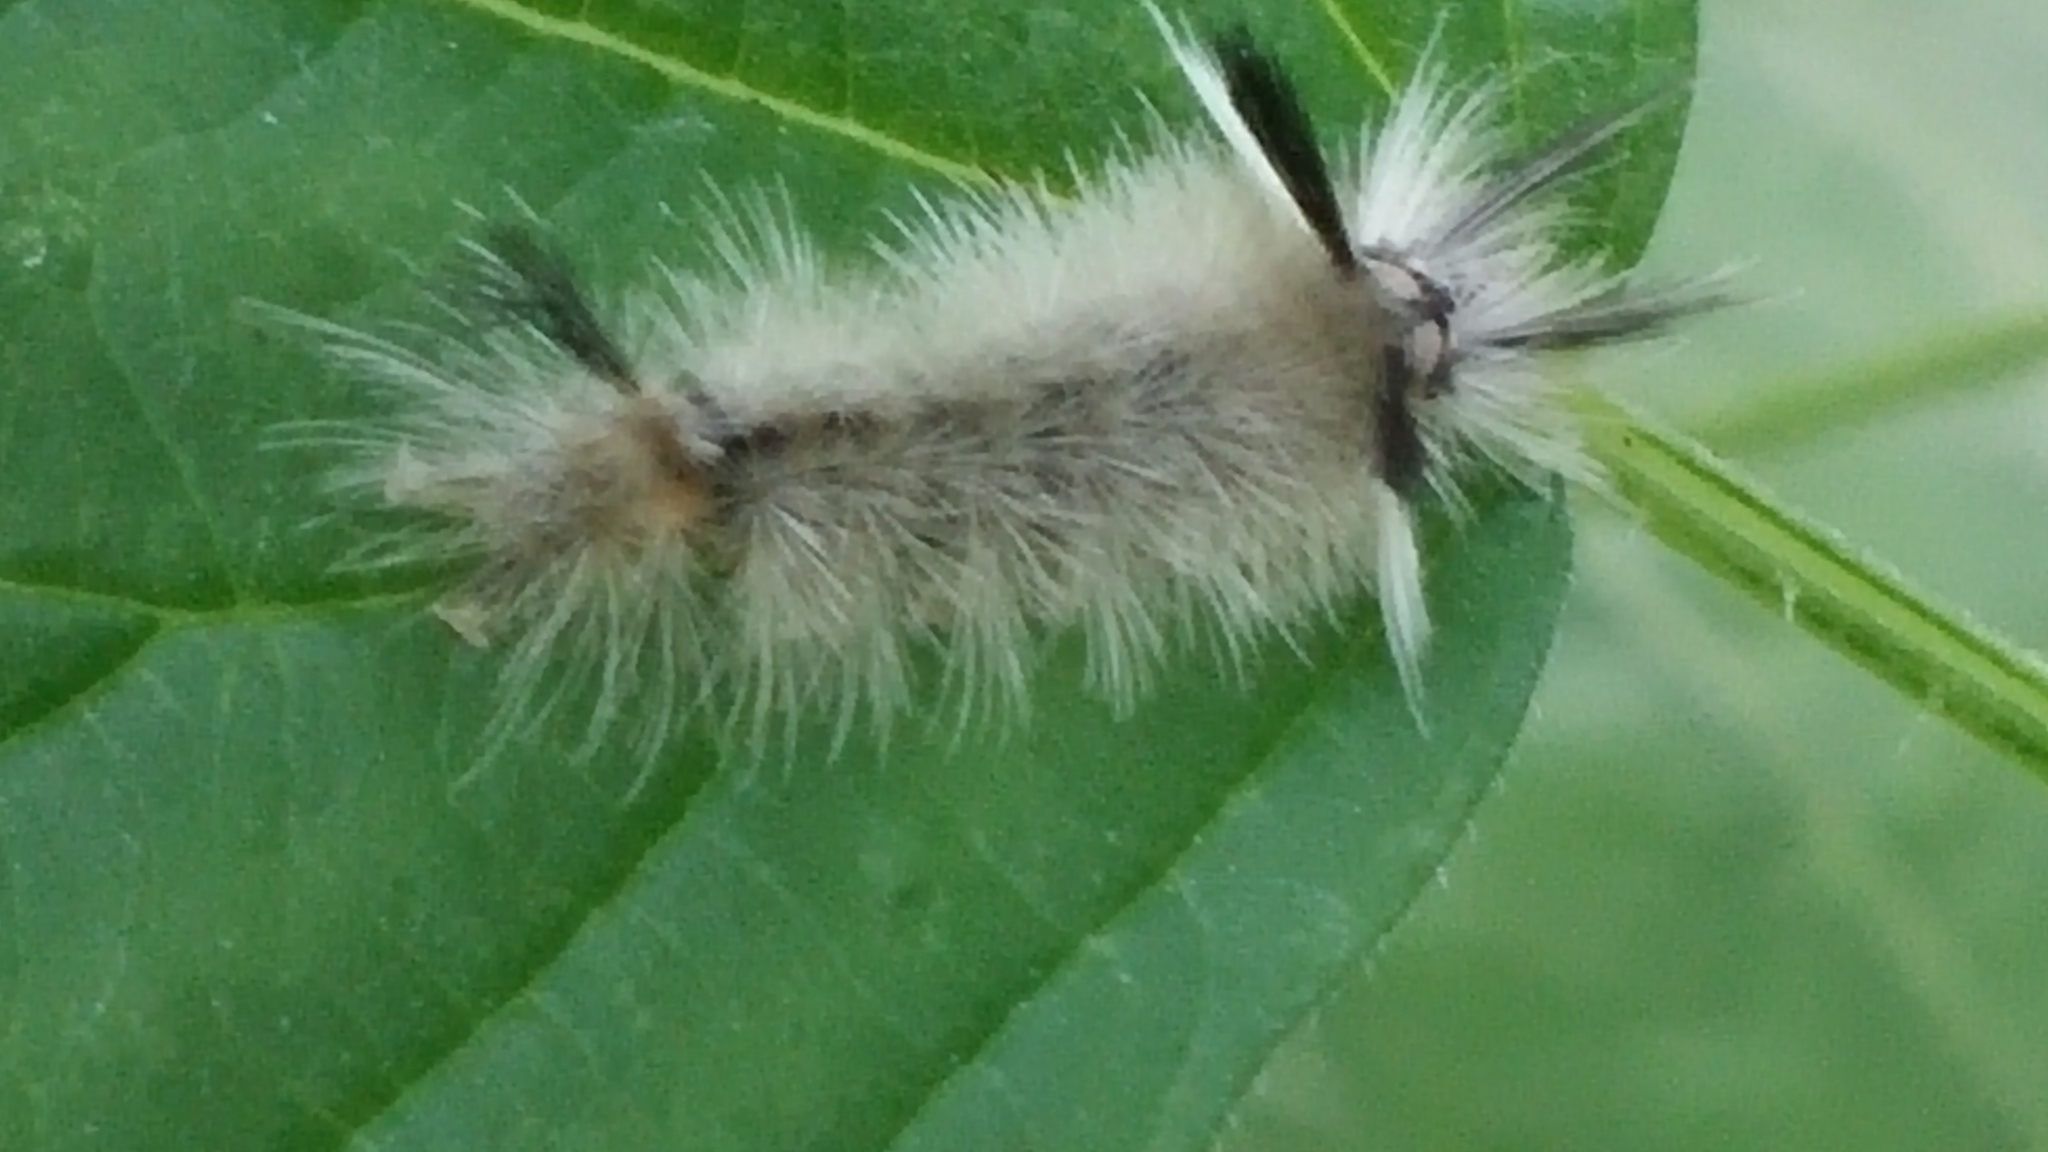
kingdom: Animalia
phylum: Arthropoda
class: Insecta
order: Lepidoptera
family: Erebidae
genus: Halysidota
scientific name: Halysidota tessellaris
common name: Banded tussock moth
